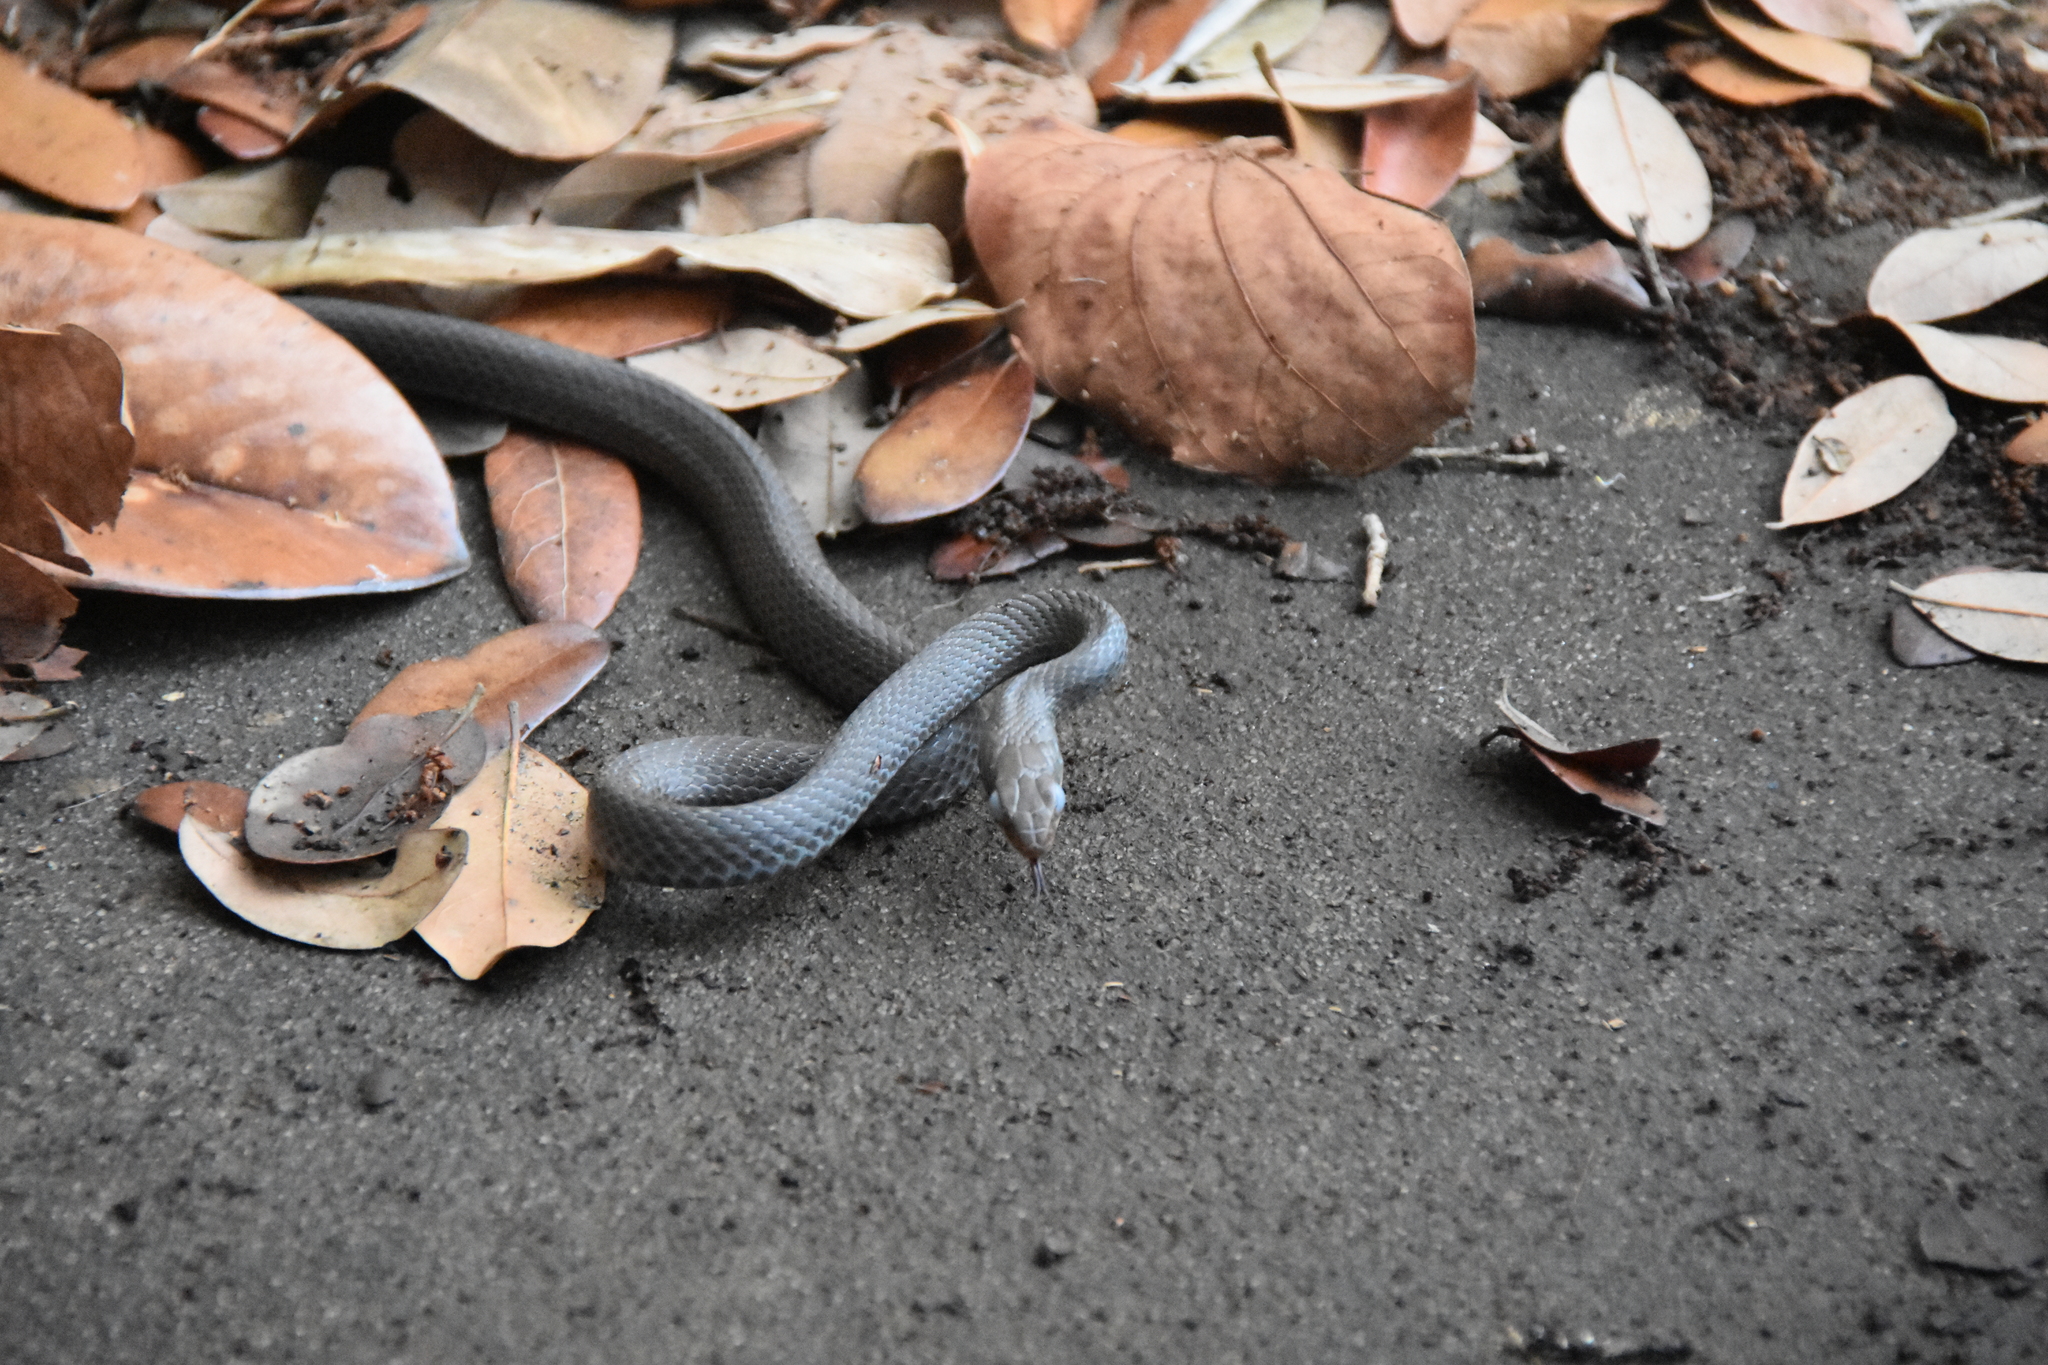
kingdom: Animalia
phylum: Chordata
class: Squamata
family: Colubridae
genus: Coluber
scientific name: Coluber constrictor
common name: Eastern racer
